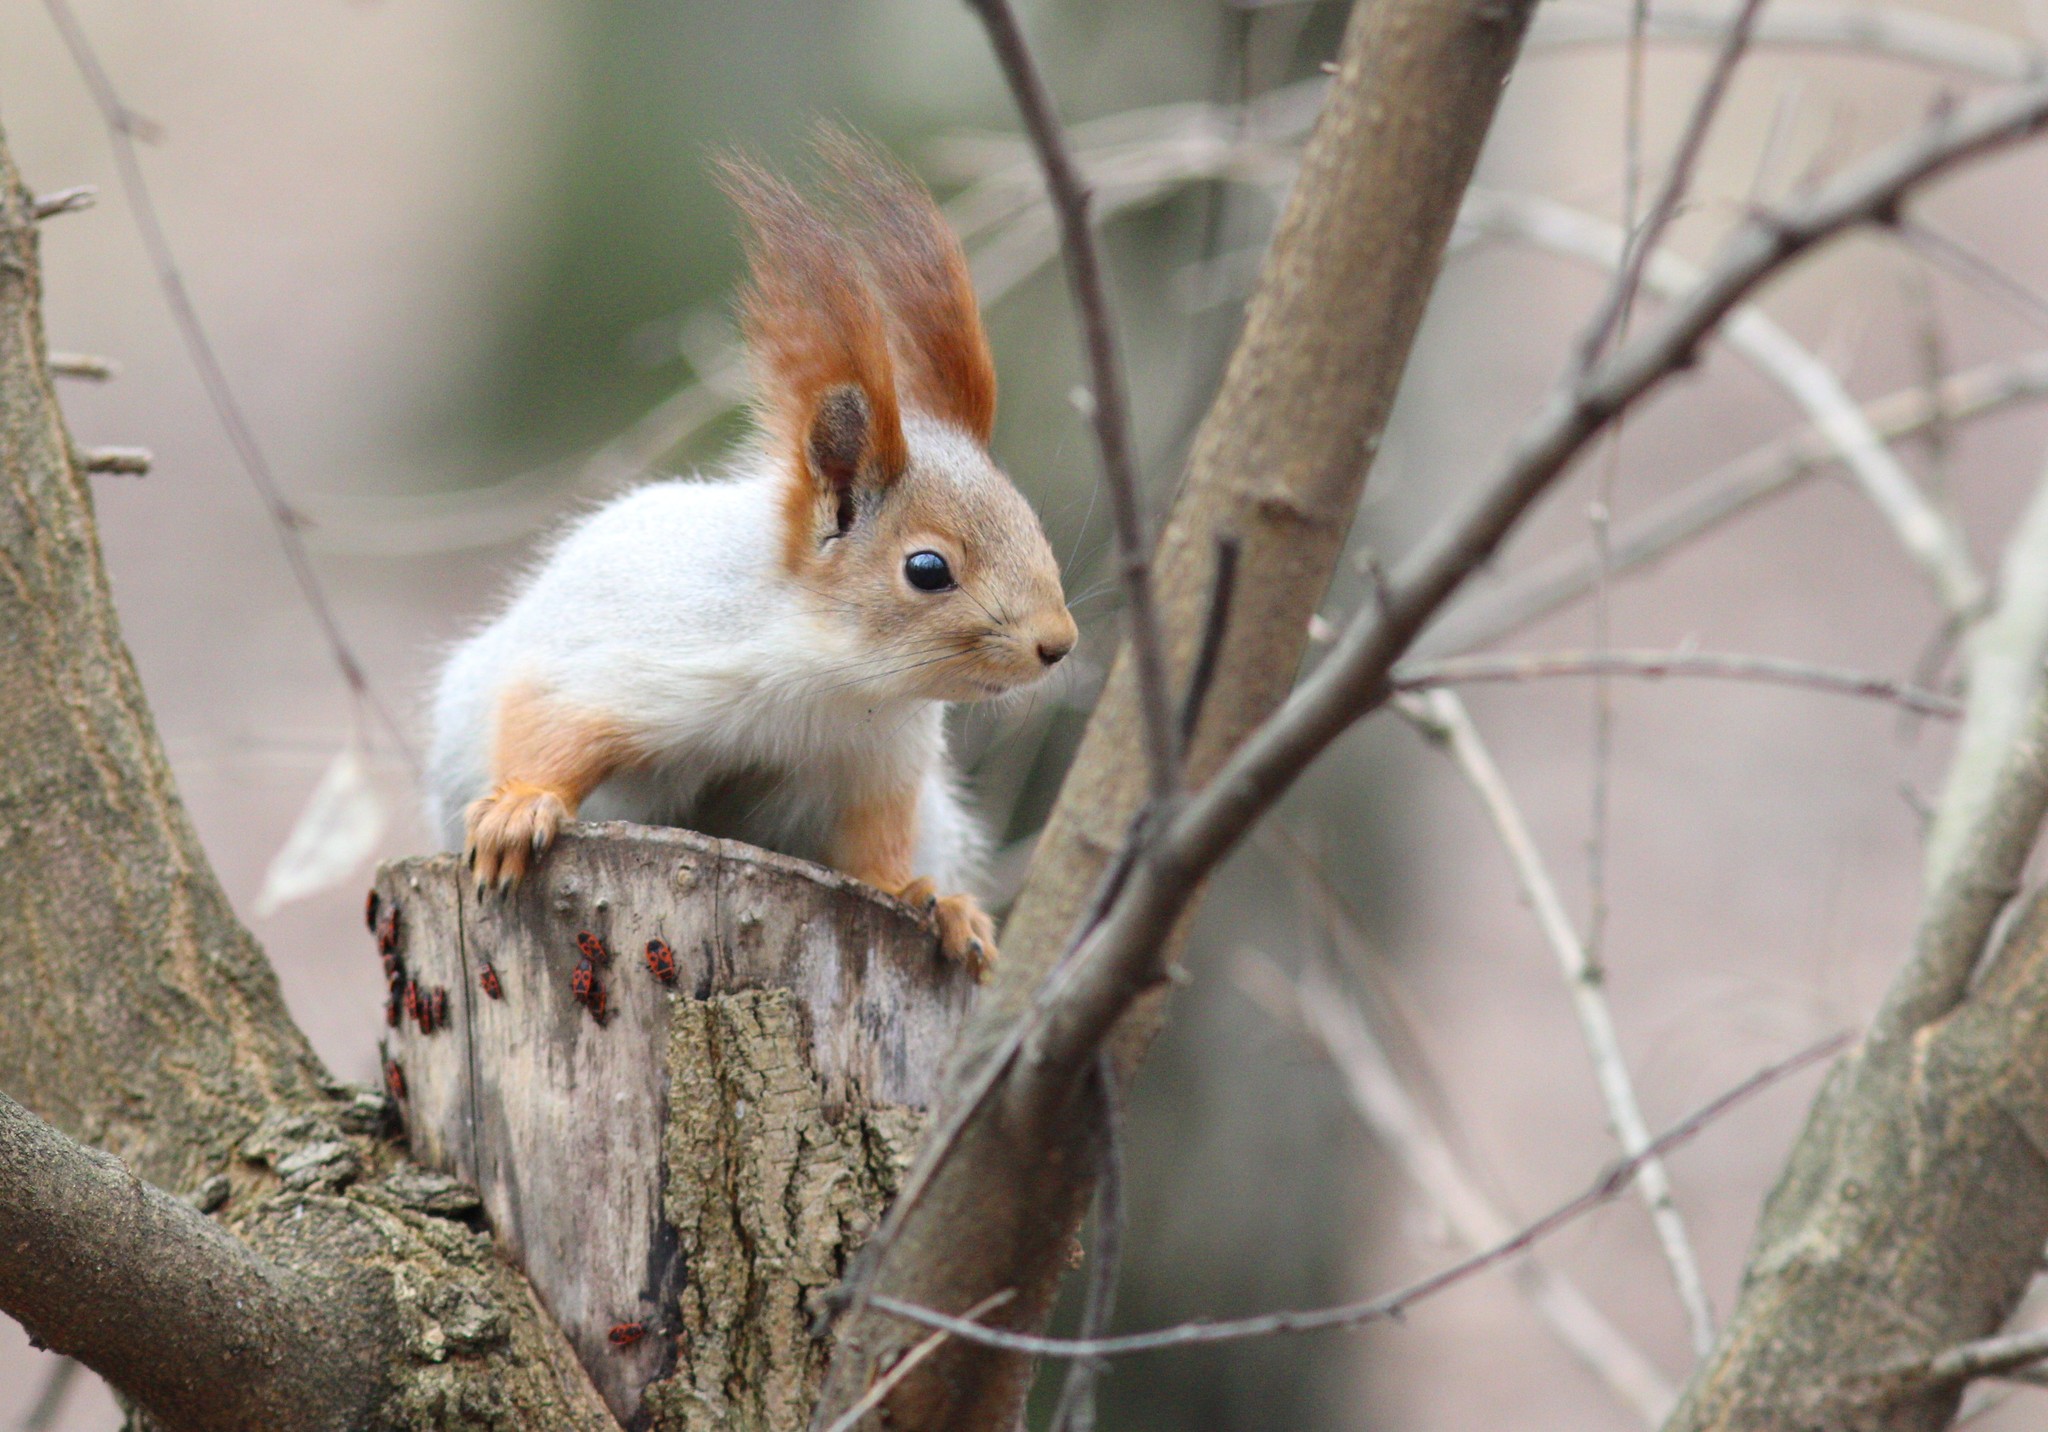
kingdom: Animalia
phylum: Chordata
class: Mammalia
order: Rodentia
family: Sciuridae
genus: Sciurus
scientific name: Sciurus vulgaris
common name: Eurasian red squirrel
